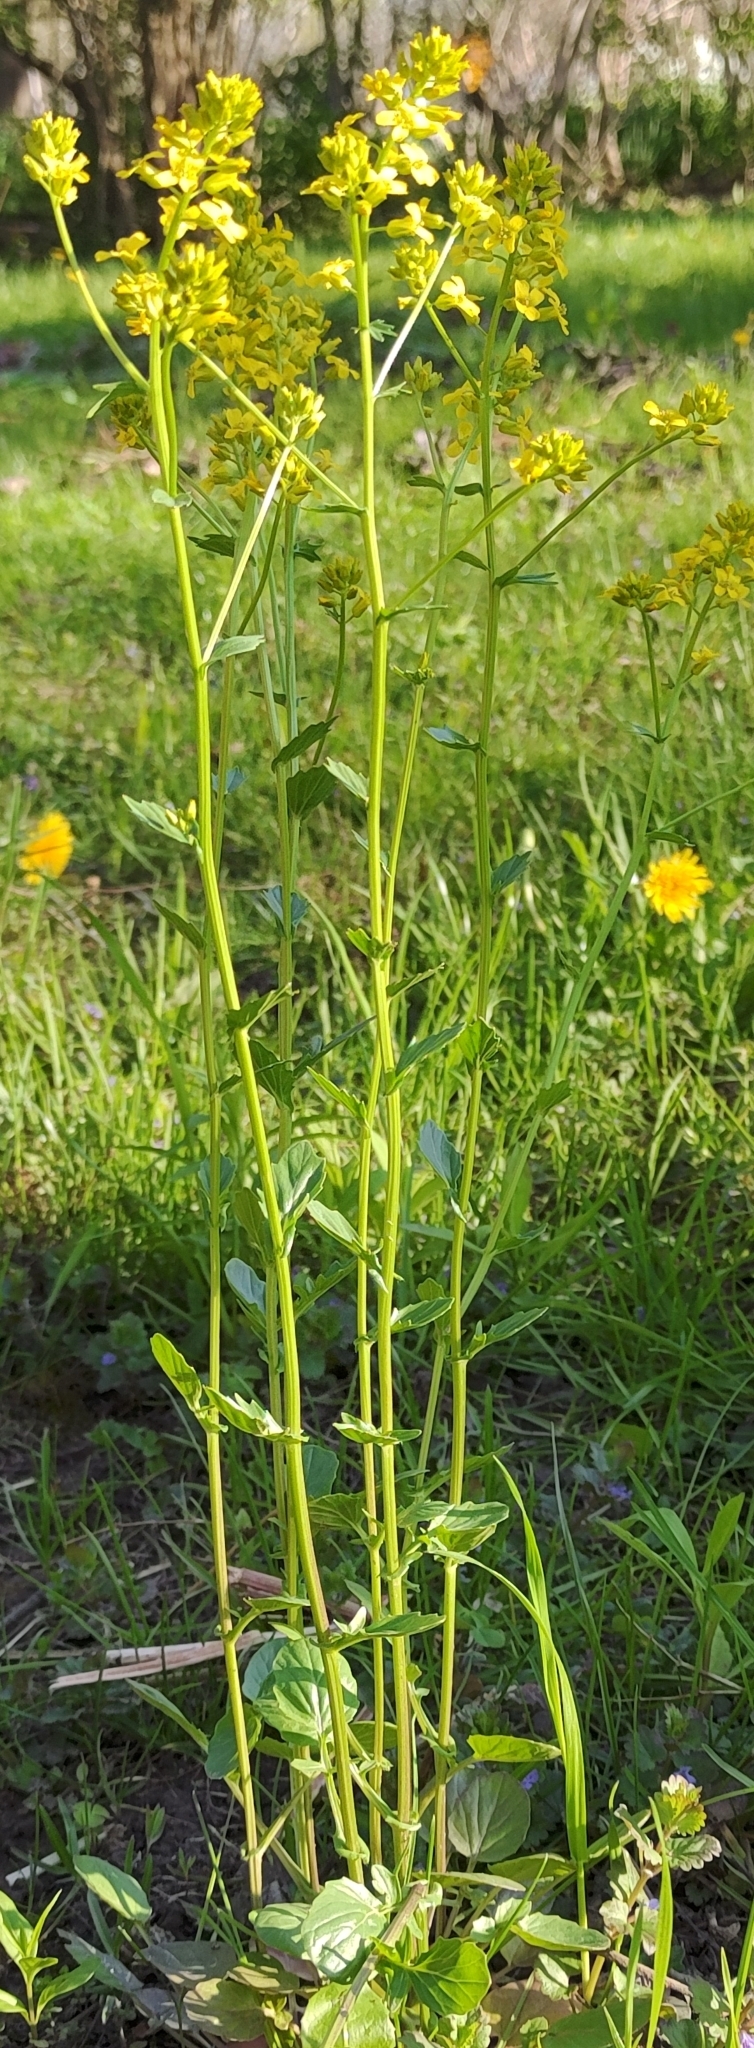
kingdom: Plantae
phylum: Tracheophyta
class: Magnoliopsida
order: Brassicales
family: Brassicaceae
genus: Barbarea
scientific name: Barbarea vulgaris
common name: Cressy-greens
